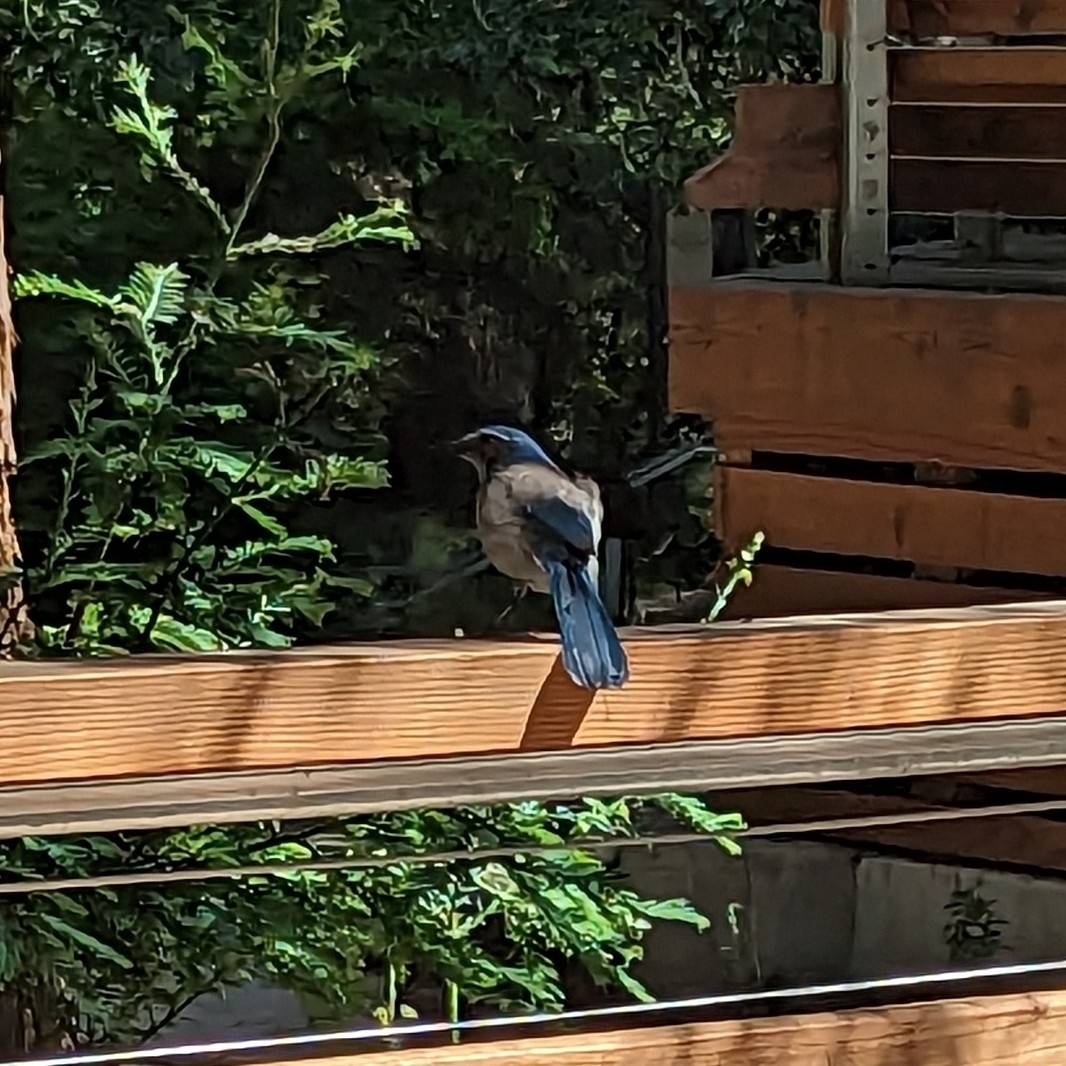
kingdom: Animalia
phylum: Chordata
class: Aves
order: Passeriformes
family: Corvidae
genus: Aphelocoma
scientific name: Aphelocoma californica
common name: California scrub-jay
